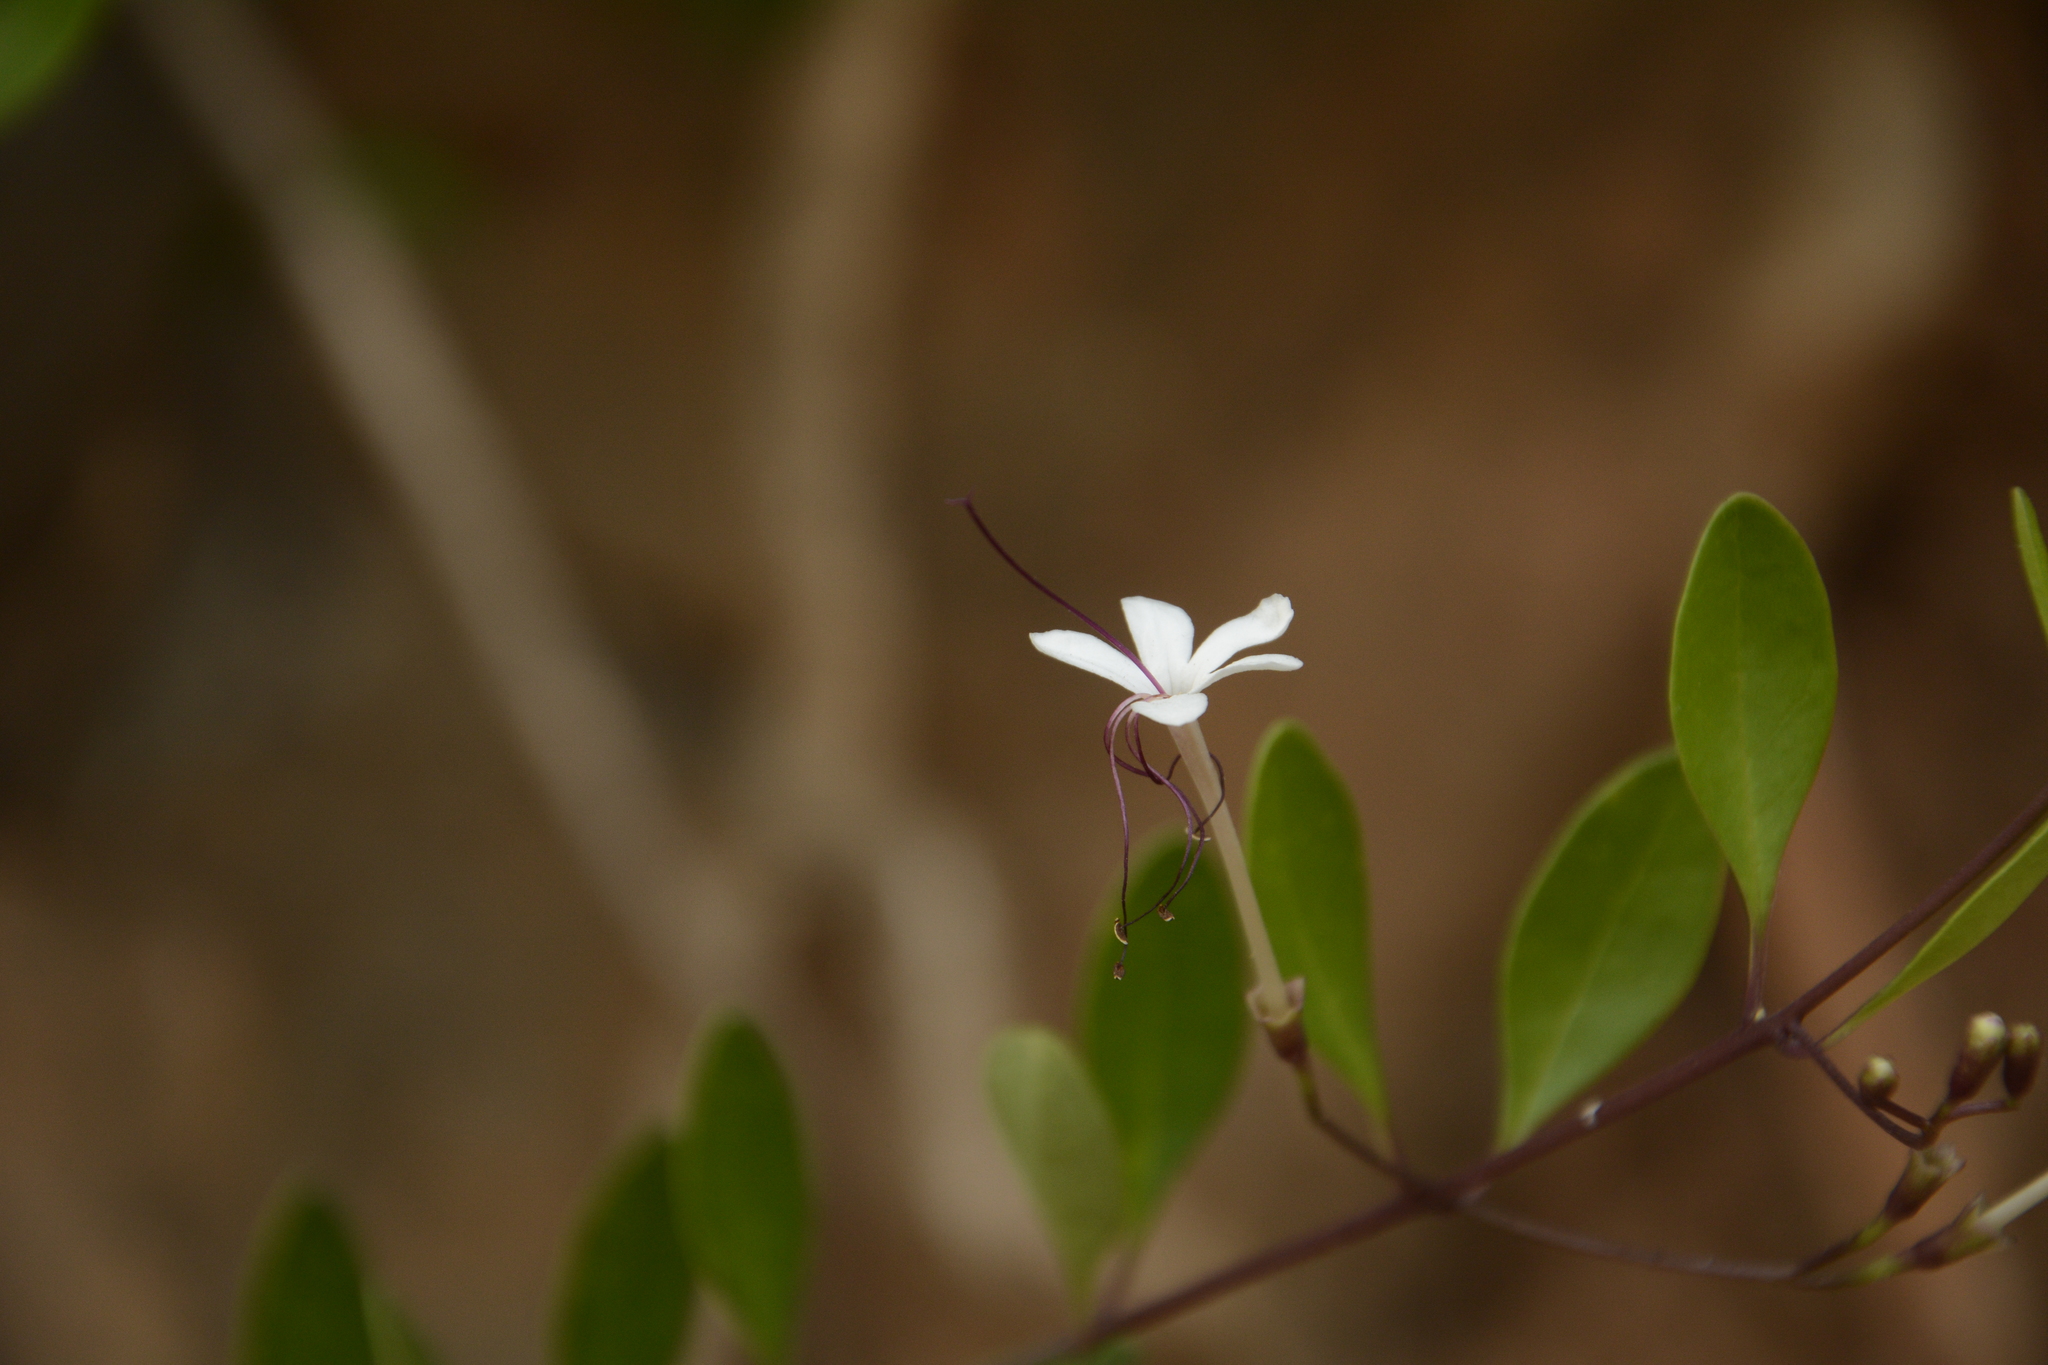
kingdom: Plantae
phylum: Tracheophyta
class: Magnoliopsida
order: Lamiales
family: Lamiaceae
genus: Volkameria
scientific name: Volkameria inermis
